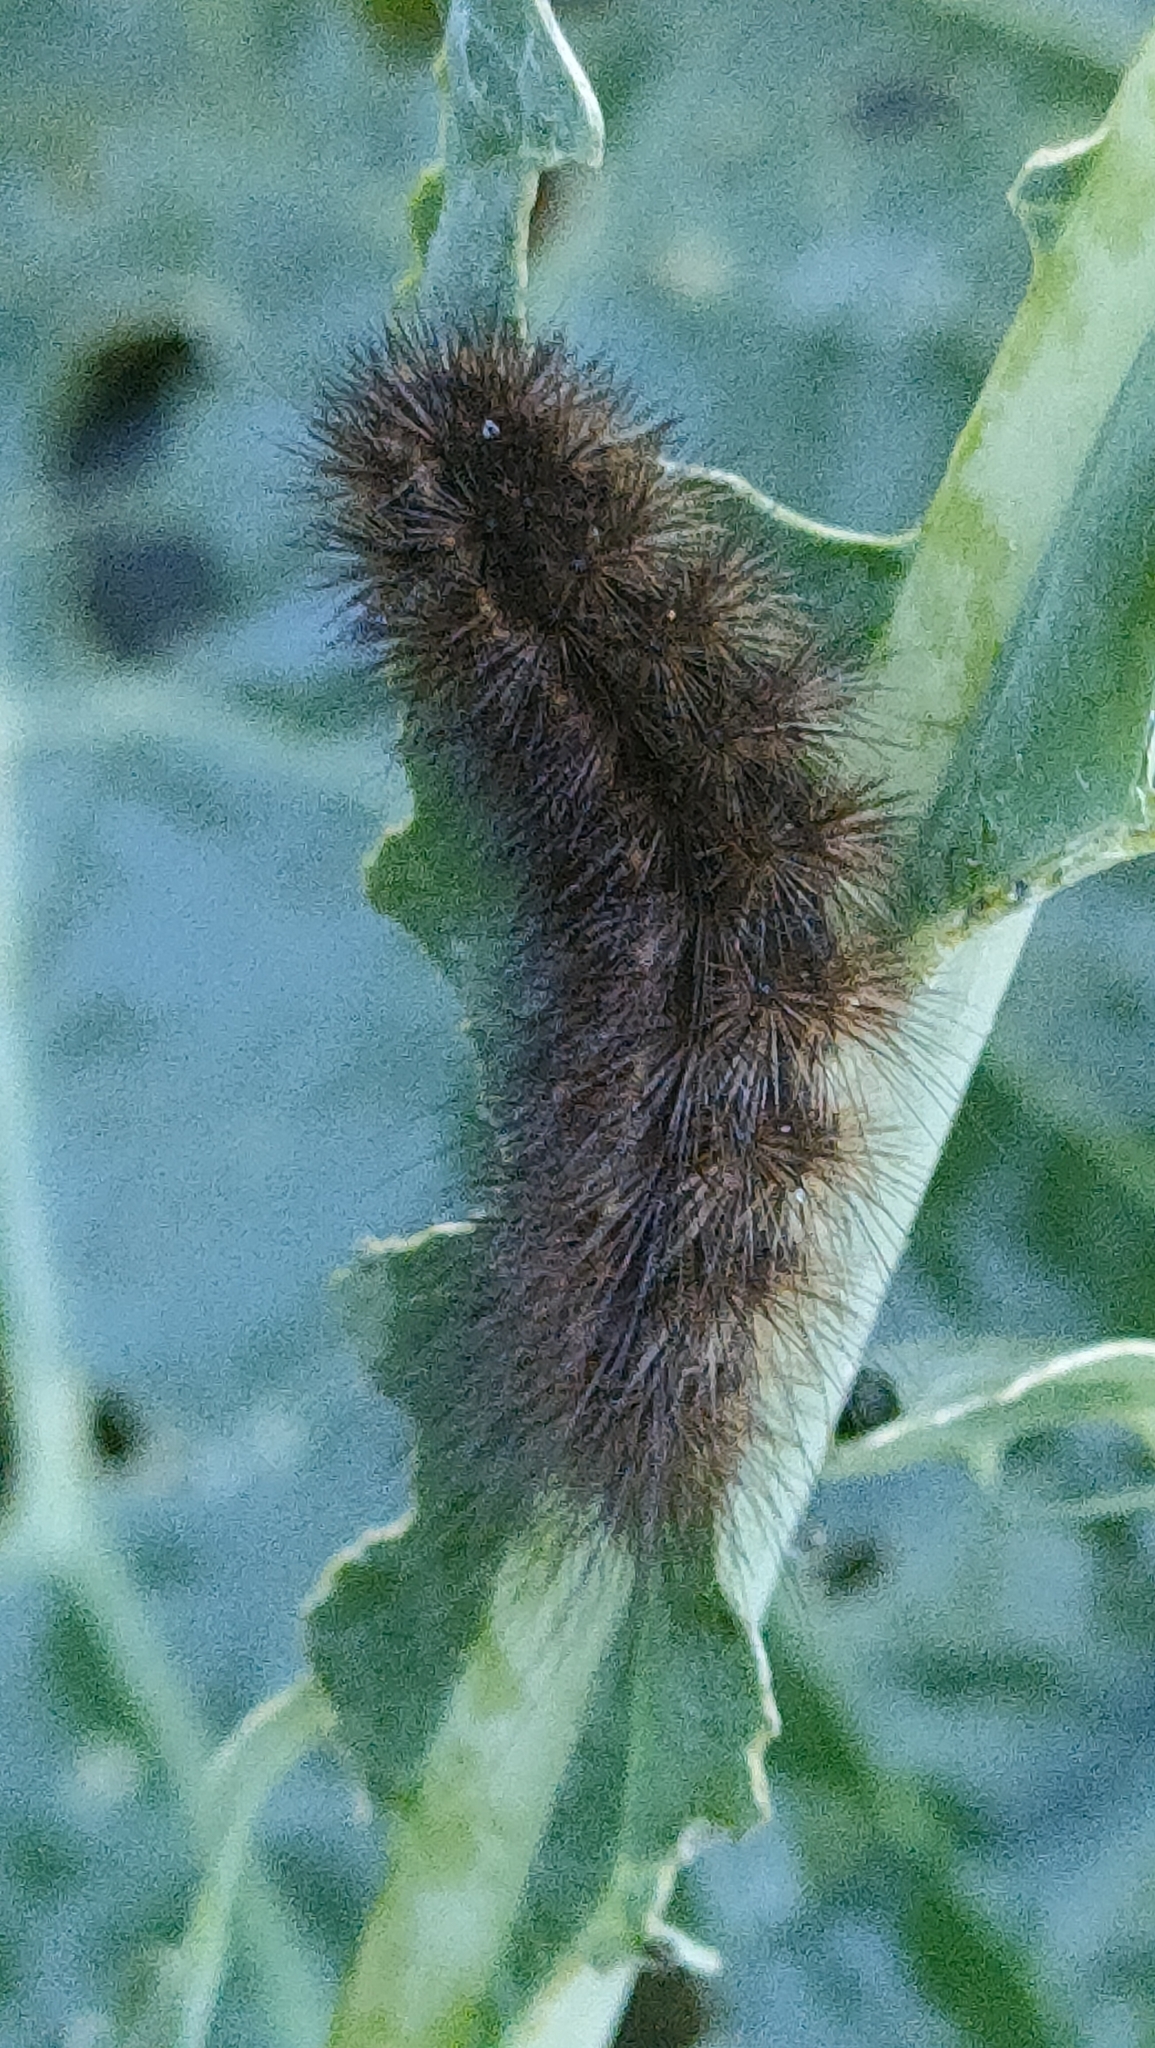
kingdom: Animalia
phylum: Arthropoda
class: Insecta
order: Lepidoptera
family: Erebidae
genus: Phragmatobia
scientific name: Phragmatobia fuliginosa
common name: Ruby tiger
